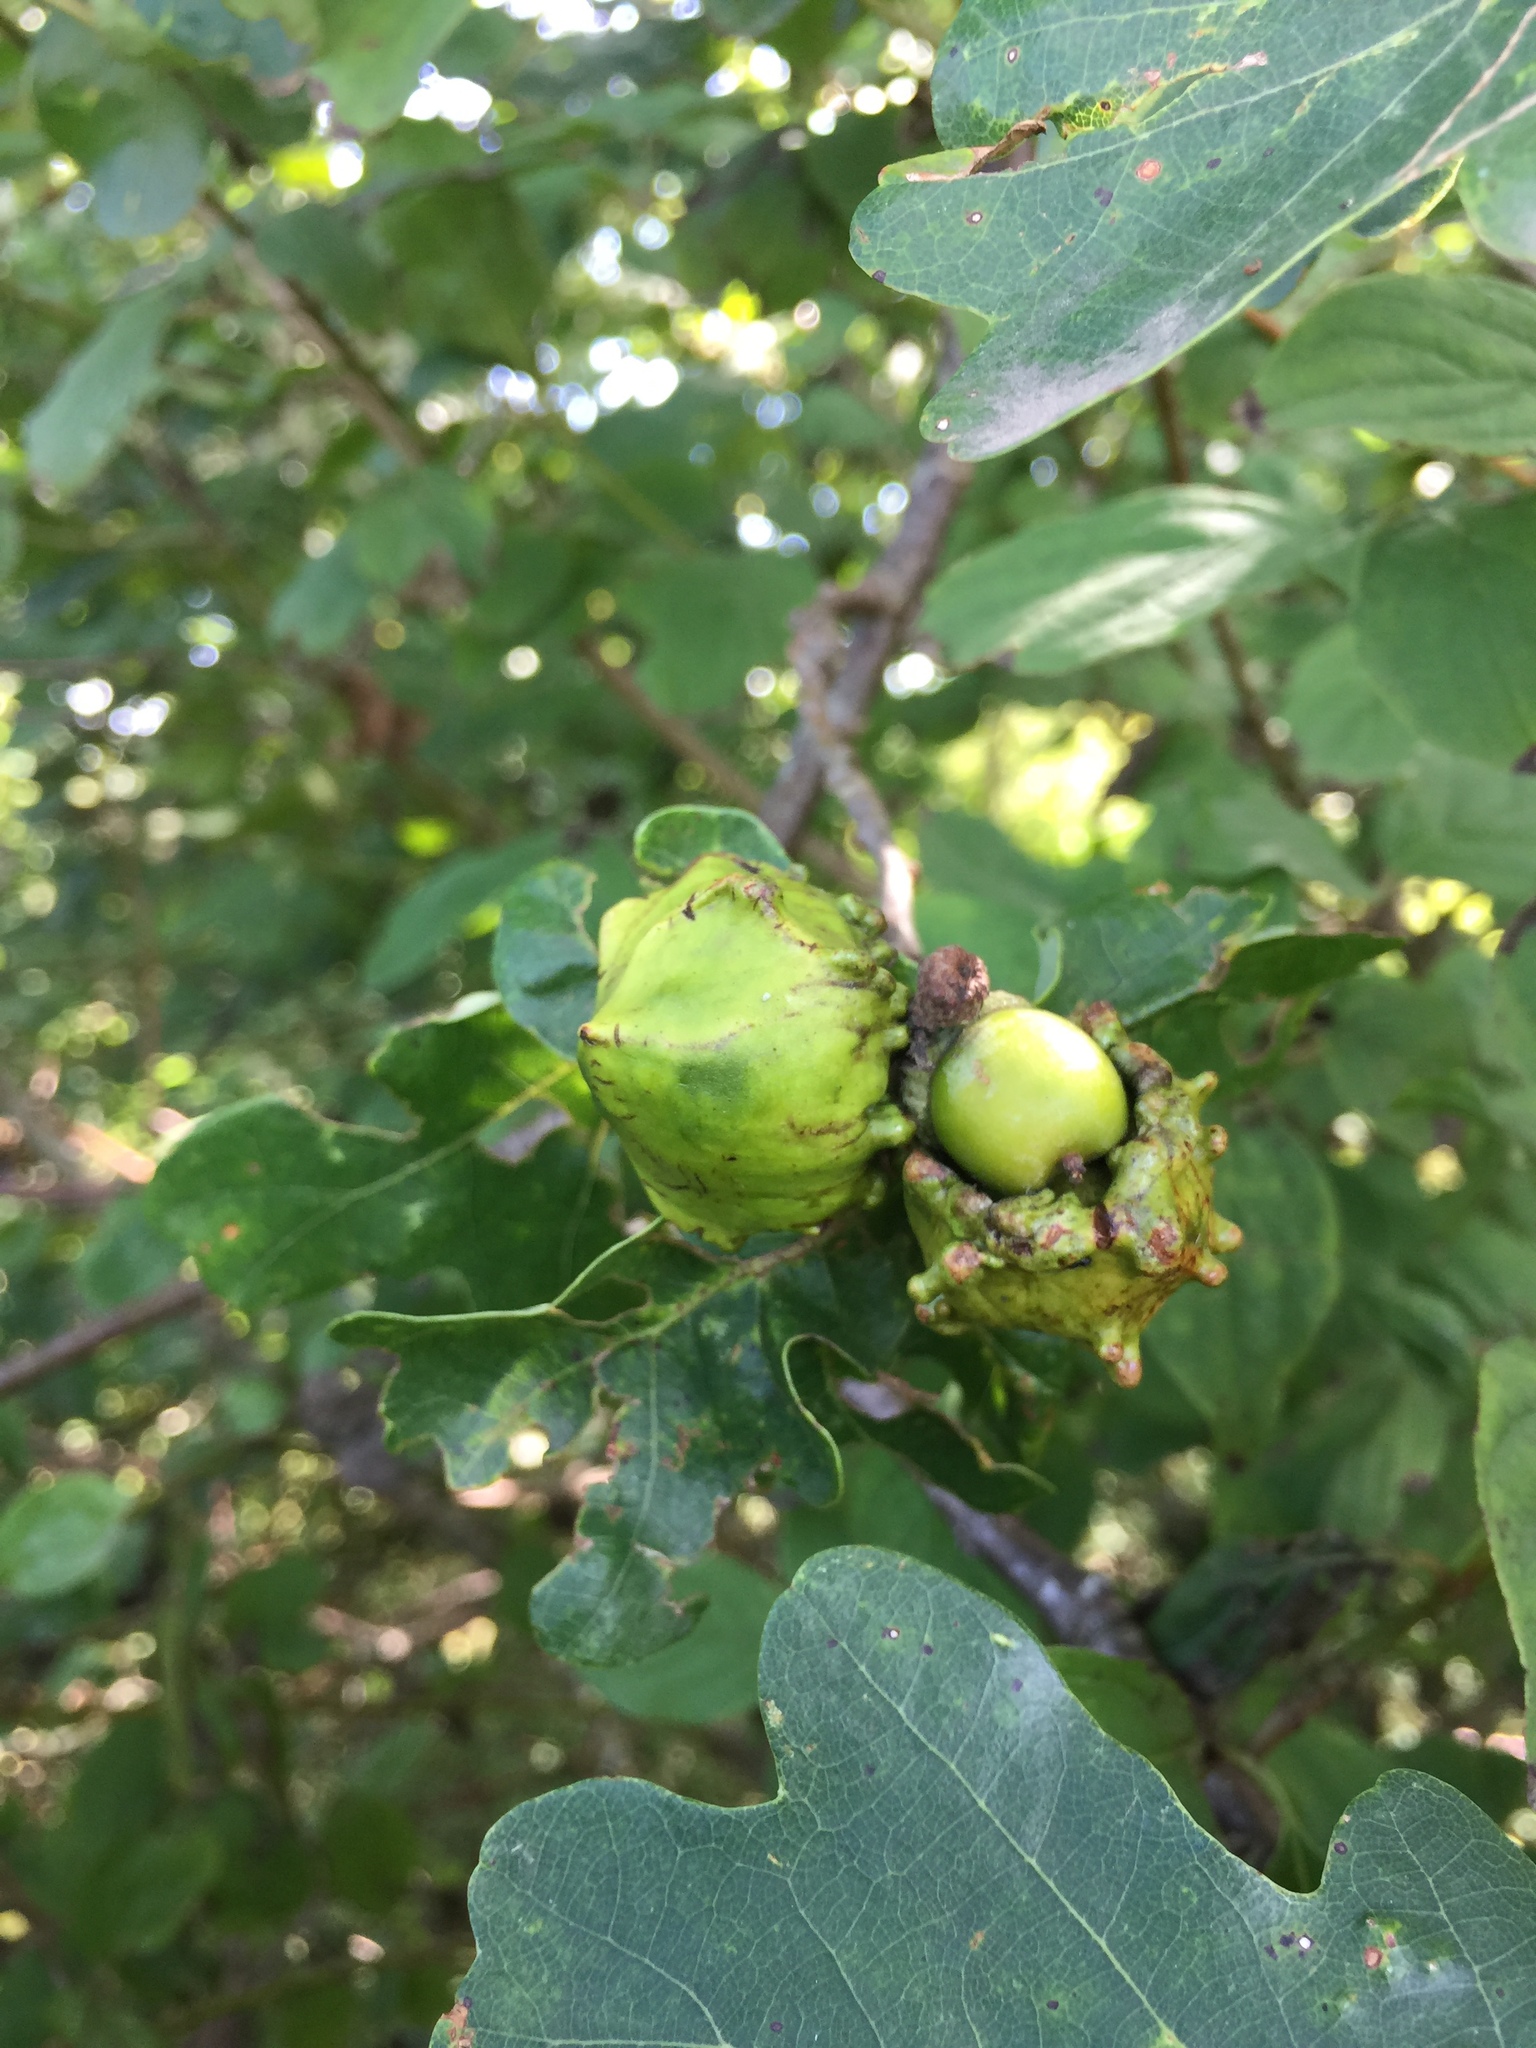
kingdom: Animalia
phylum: Arthropoda
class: Insecta
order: Hymenoptera
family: Cynipidae
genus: Andricus
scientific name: Andricus quercuscalicis
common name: Knopper gall
